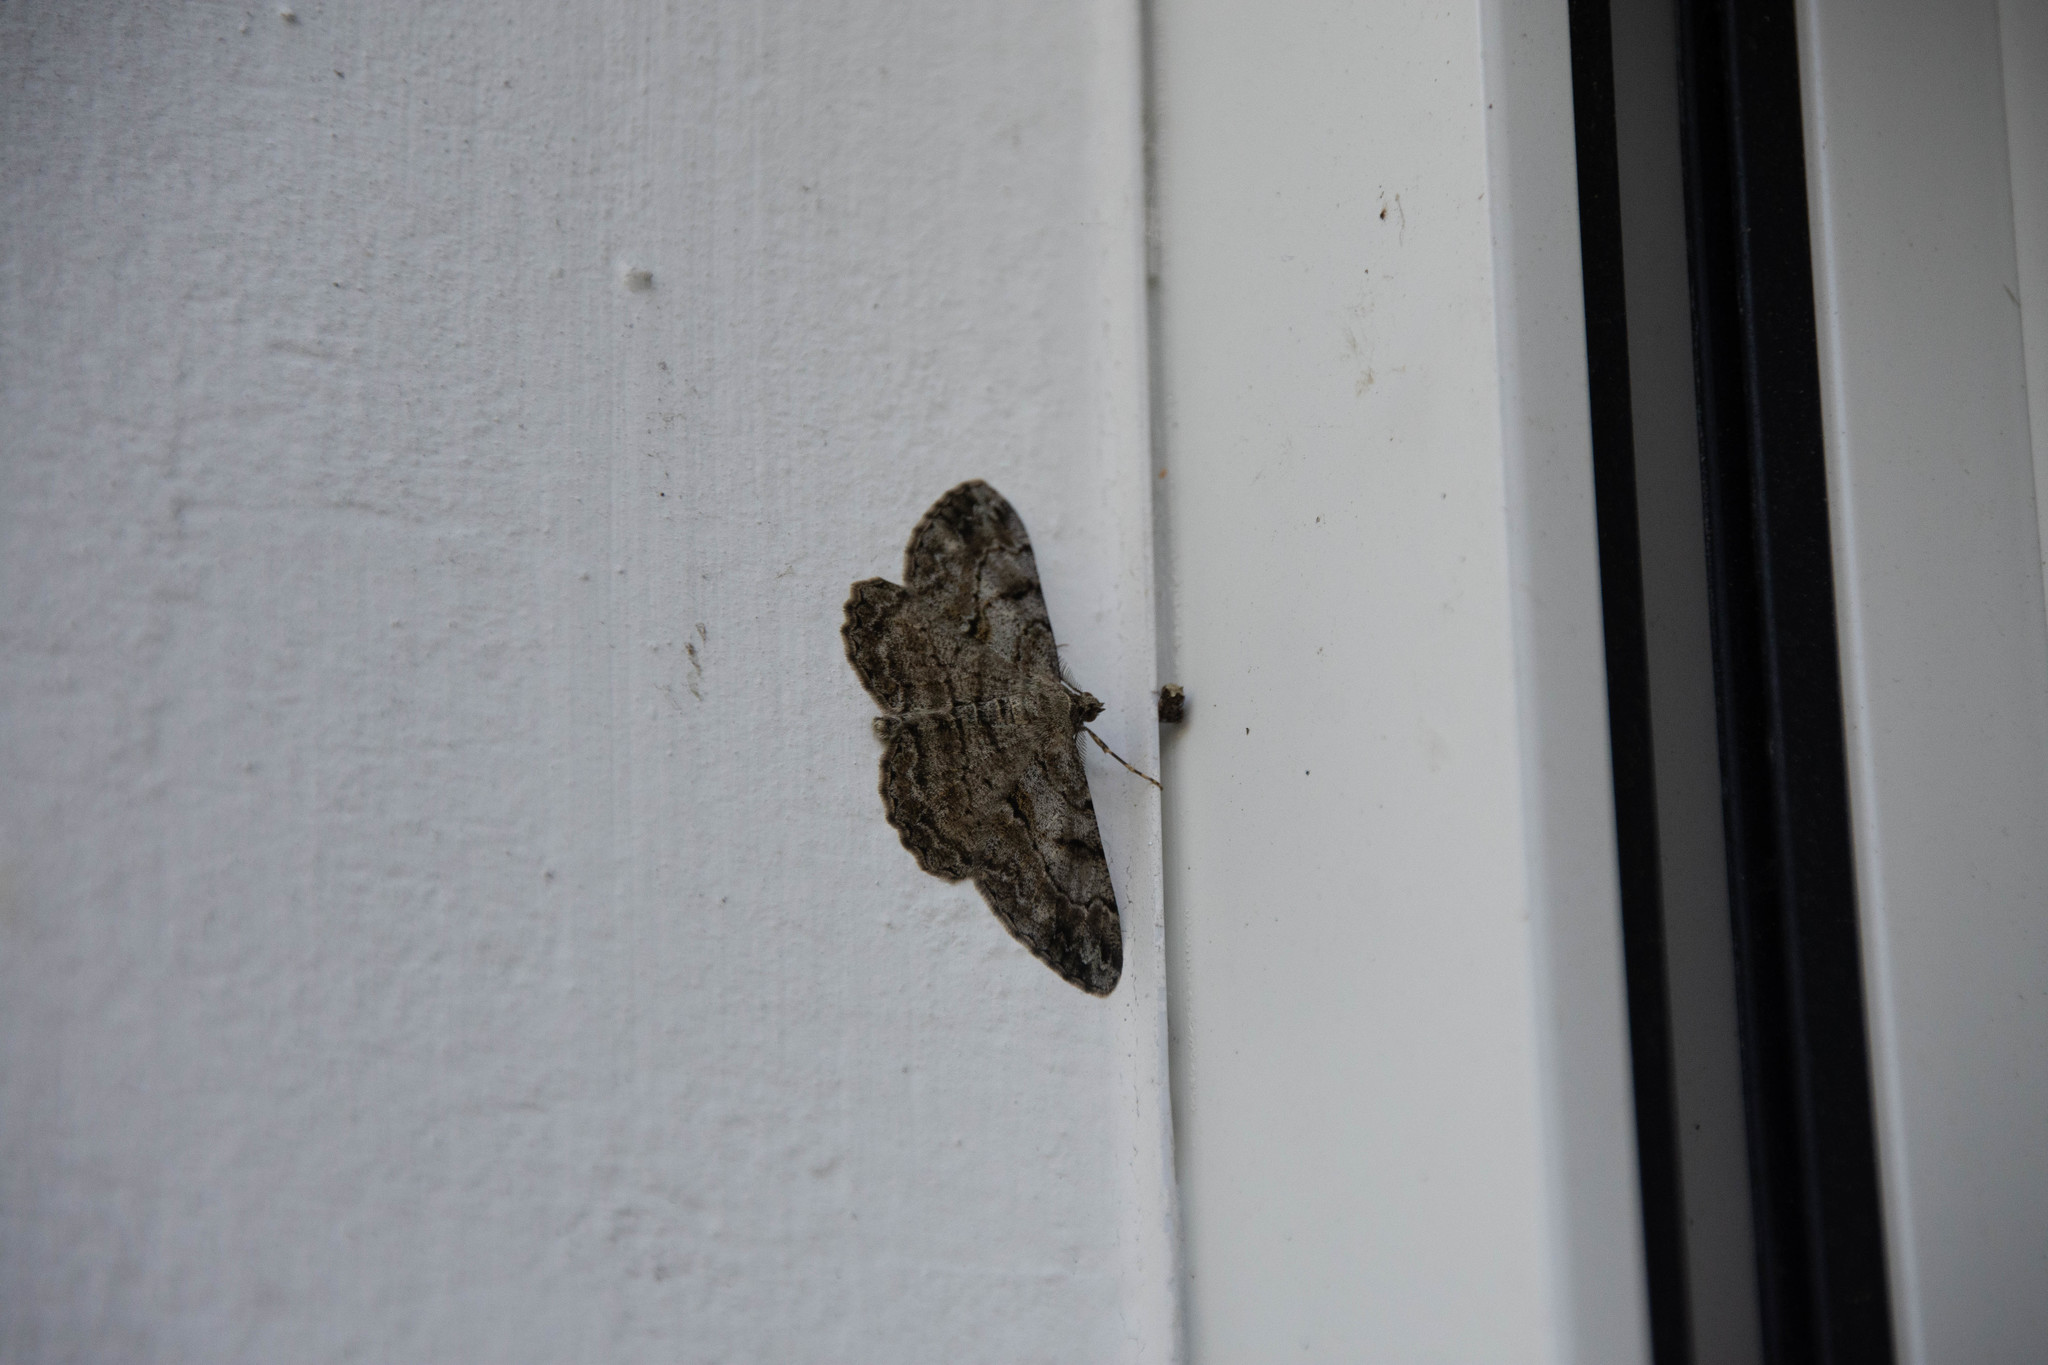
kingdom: Animalia
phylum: Arthropoda
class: Insecta
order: Lepidoptera
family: Geometridae
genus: Peribatodes
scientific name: Peribatodes rhomboidaria
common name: Willow beauty
